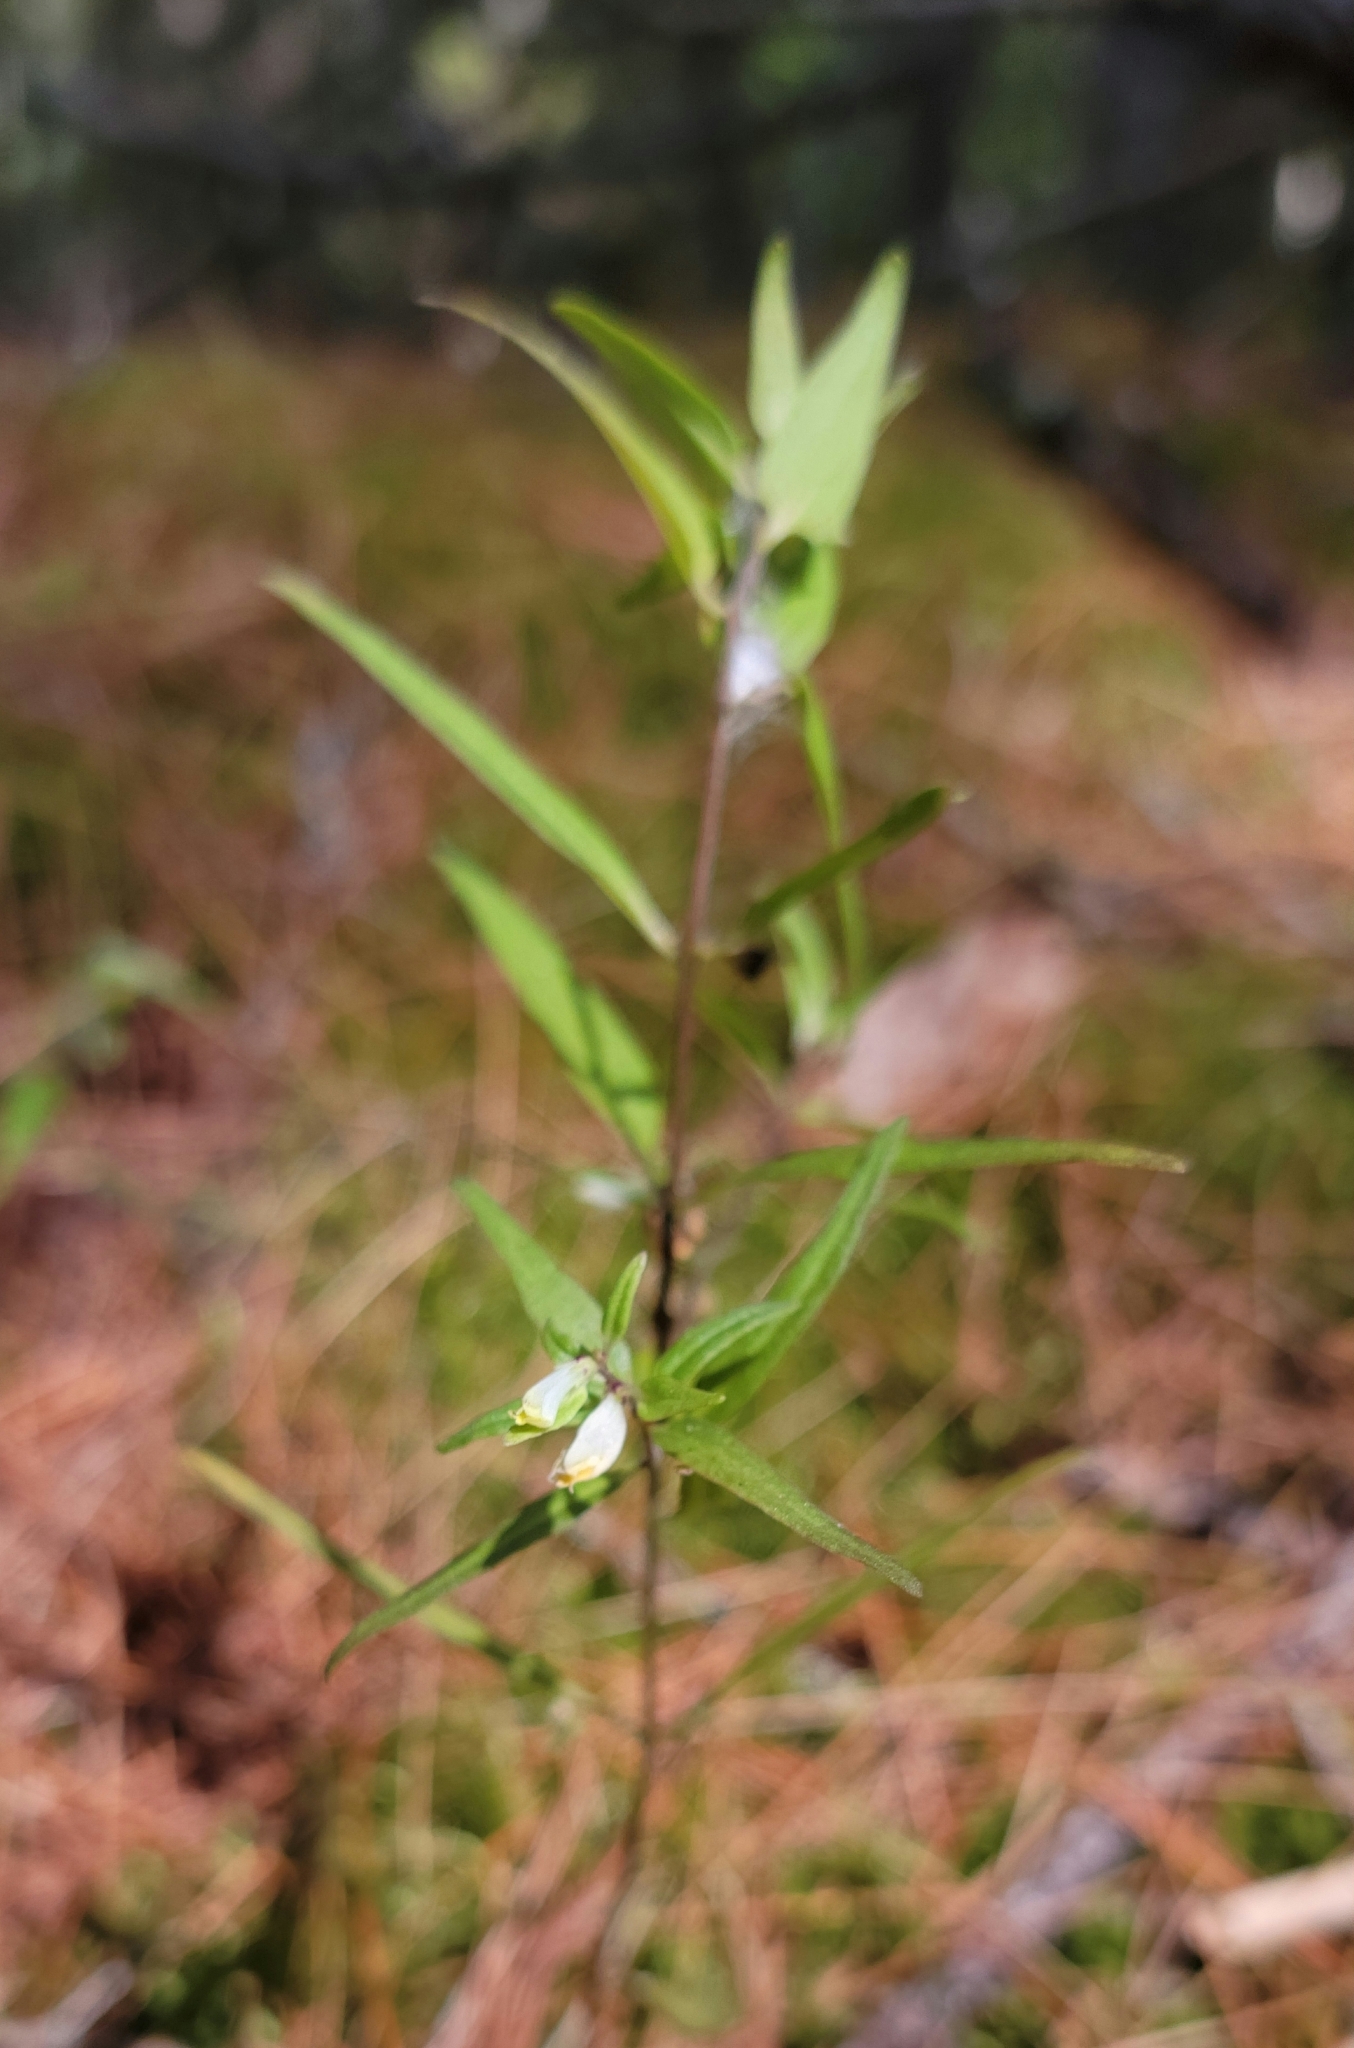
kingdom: Plantae
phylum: Tracheophyta
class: Magnoliopsida
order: Lamiales
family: Orobanchaceae
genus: Melampyrum
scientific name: Melampyrum lineare
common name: American cow-wheat
